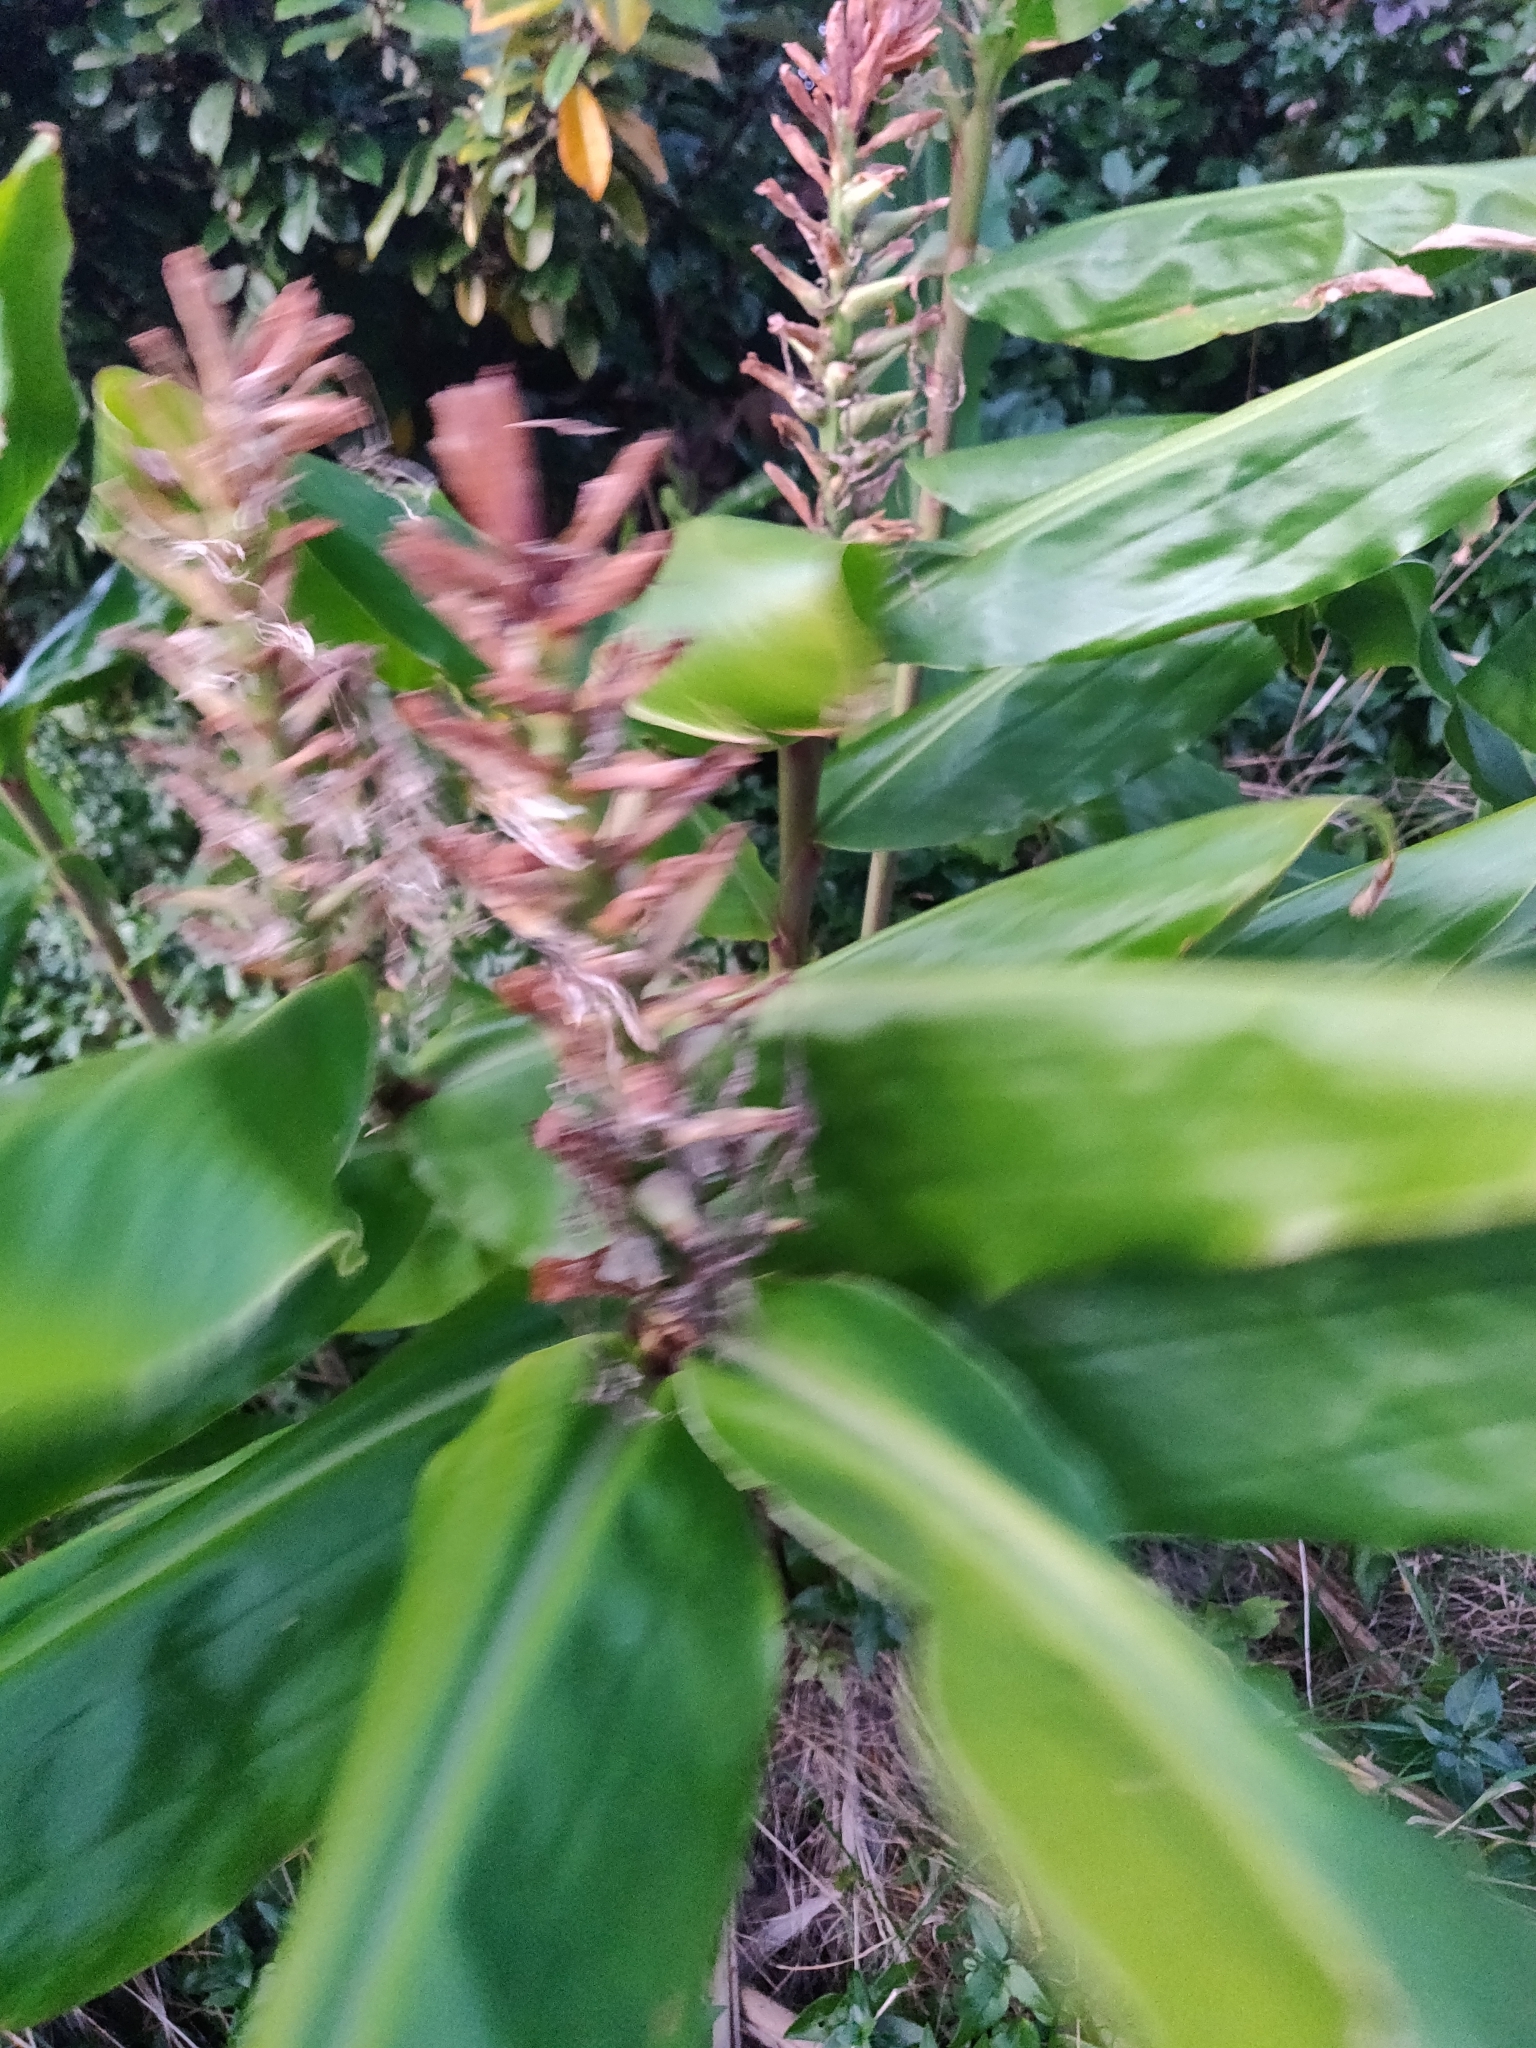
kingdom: Plantae
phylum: Tracheophyta
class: Liliopsida
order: Zingiberales
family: Zingiberaceae
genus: Hedychium
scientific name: Hedychium gardnerianum
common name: Himalayan ginger
